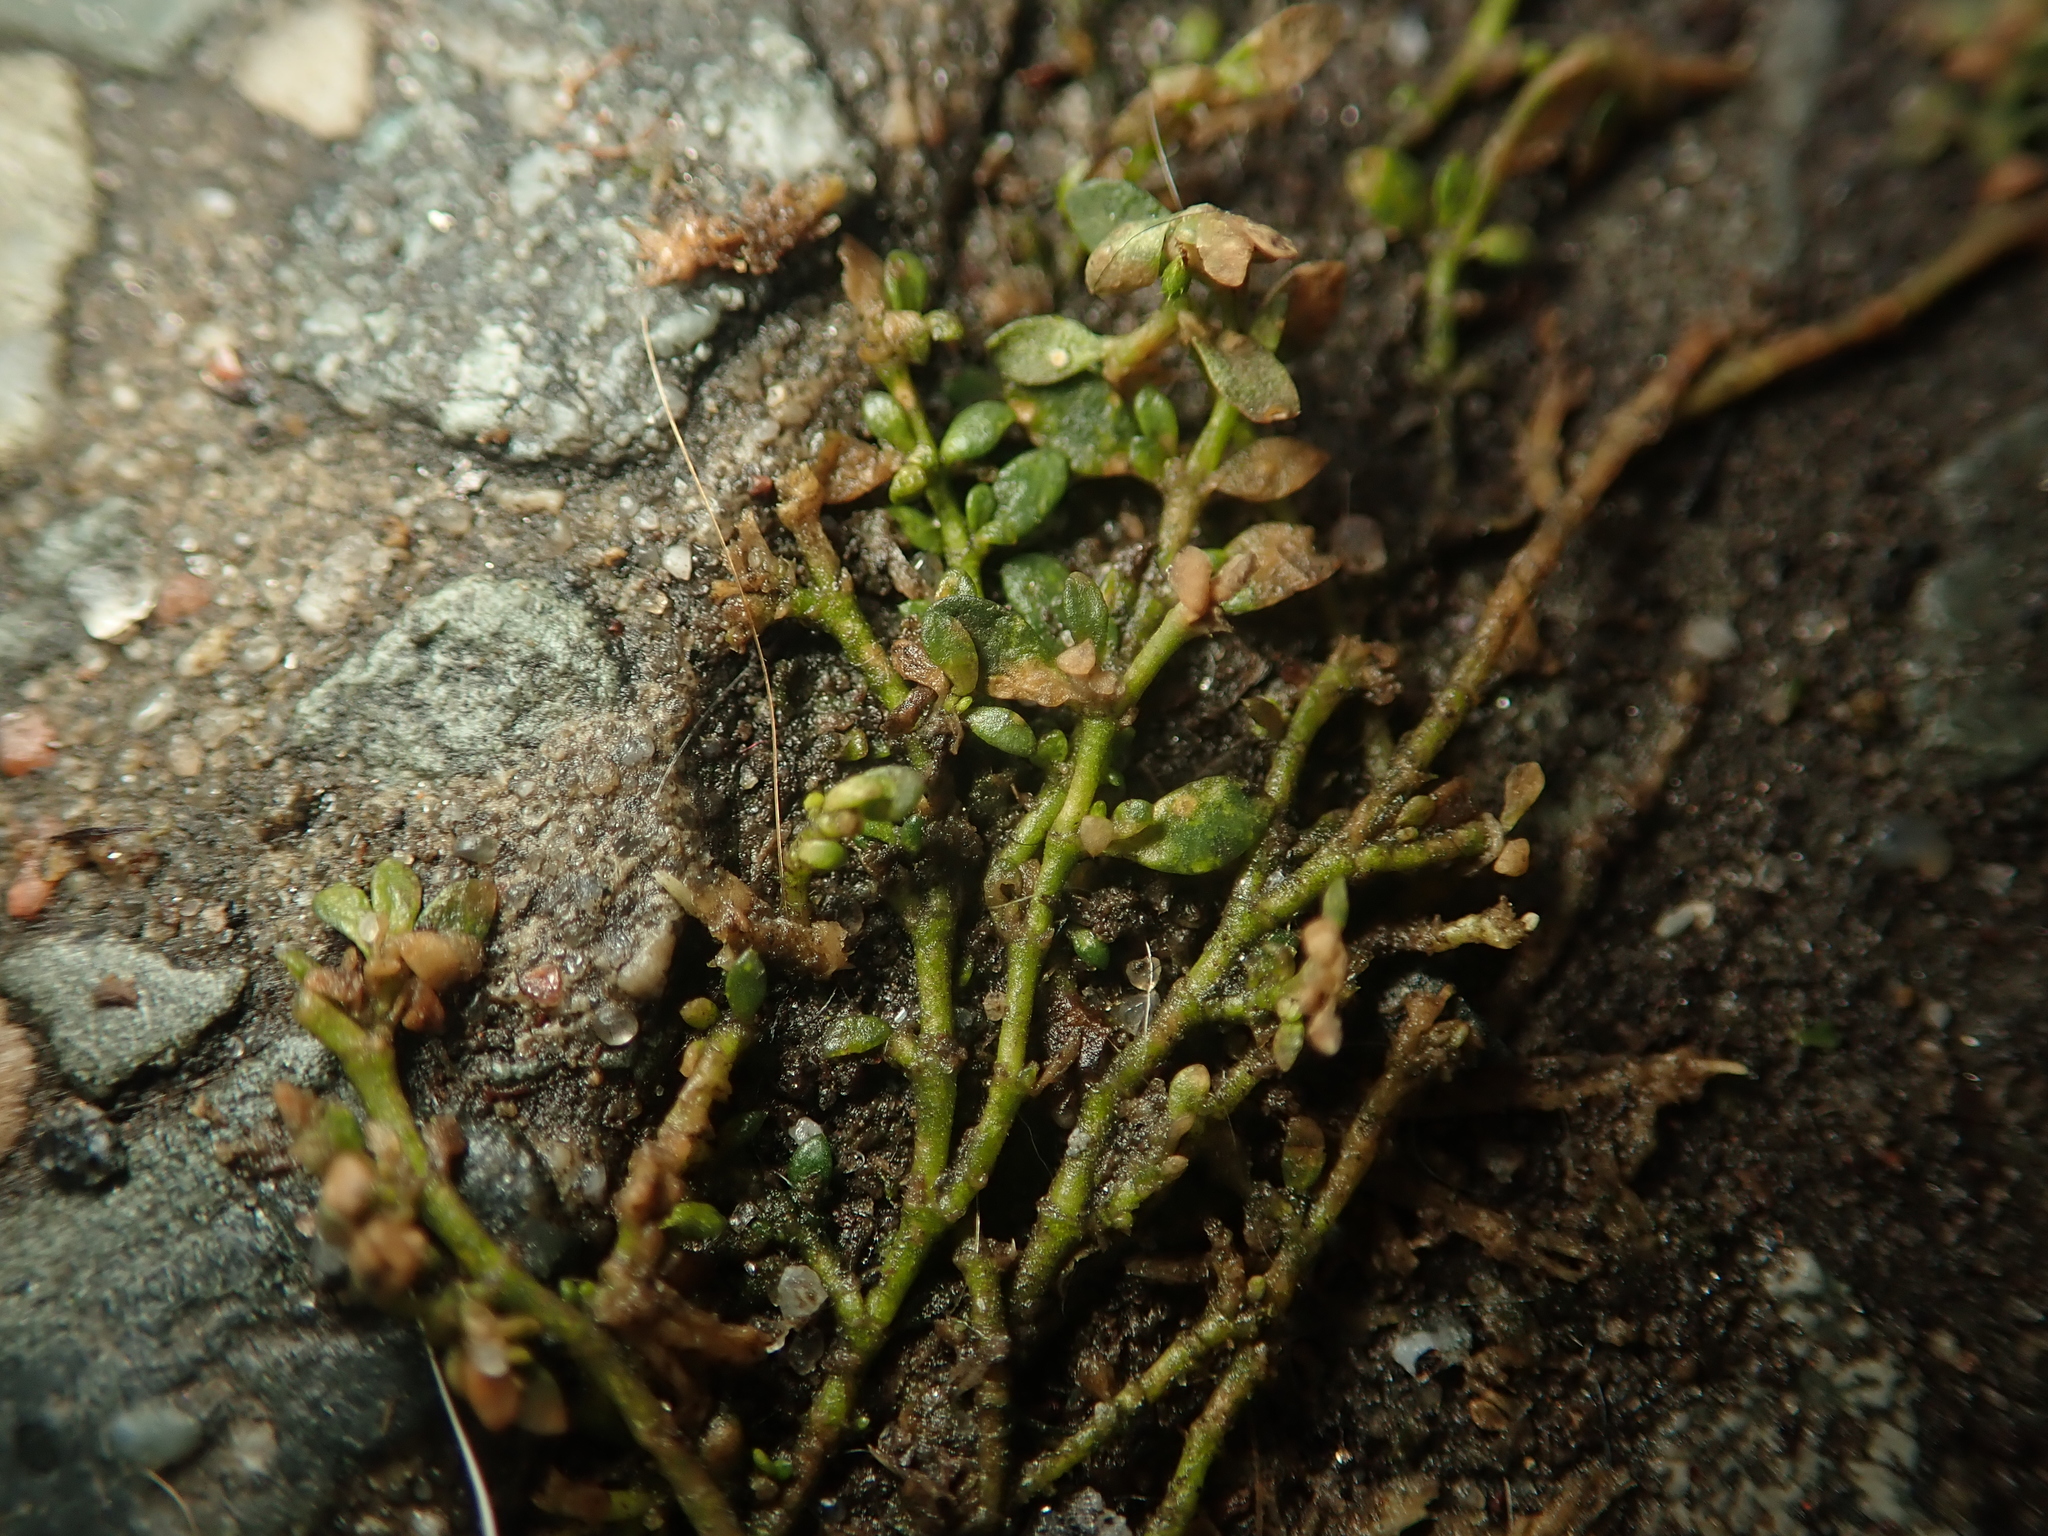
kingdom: Plantae
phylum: Tracheophyta
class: Magnoliopsida
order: Caryophyllales
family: Caryophyllaceae
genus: Herniaria
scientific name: Herniaria glabra
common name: Smooth rupturewort
